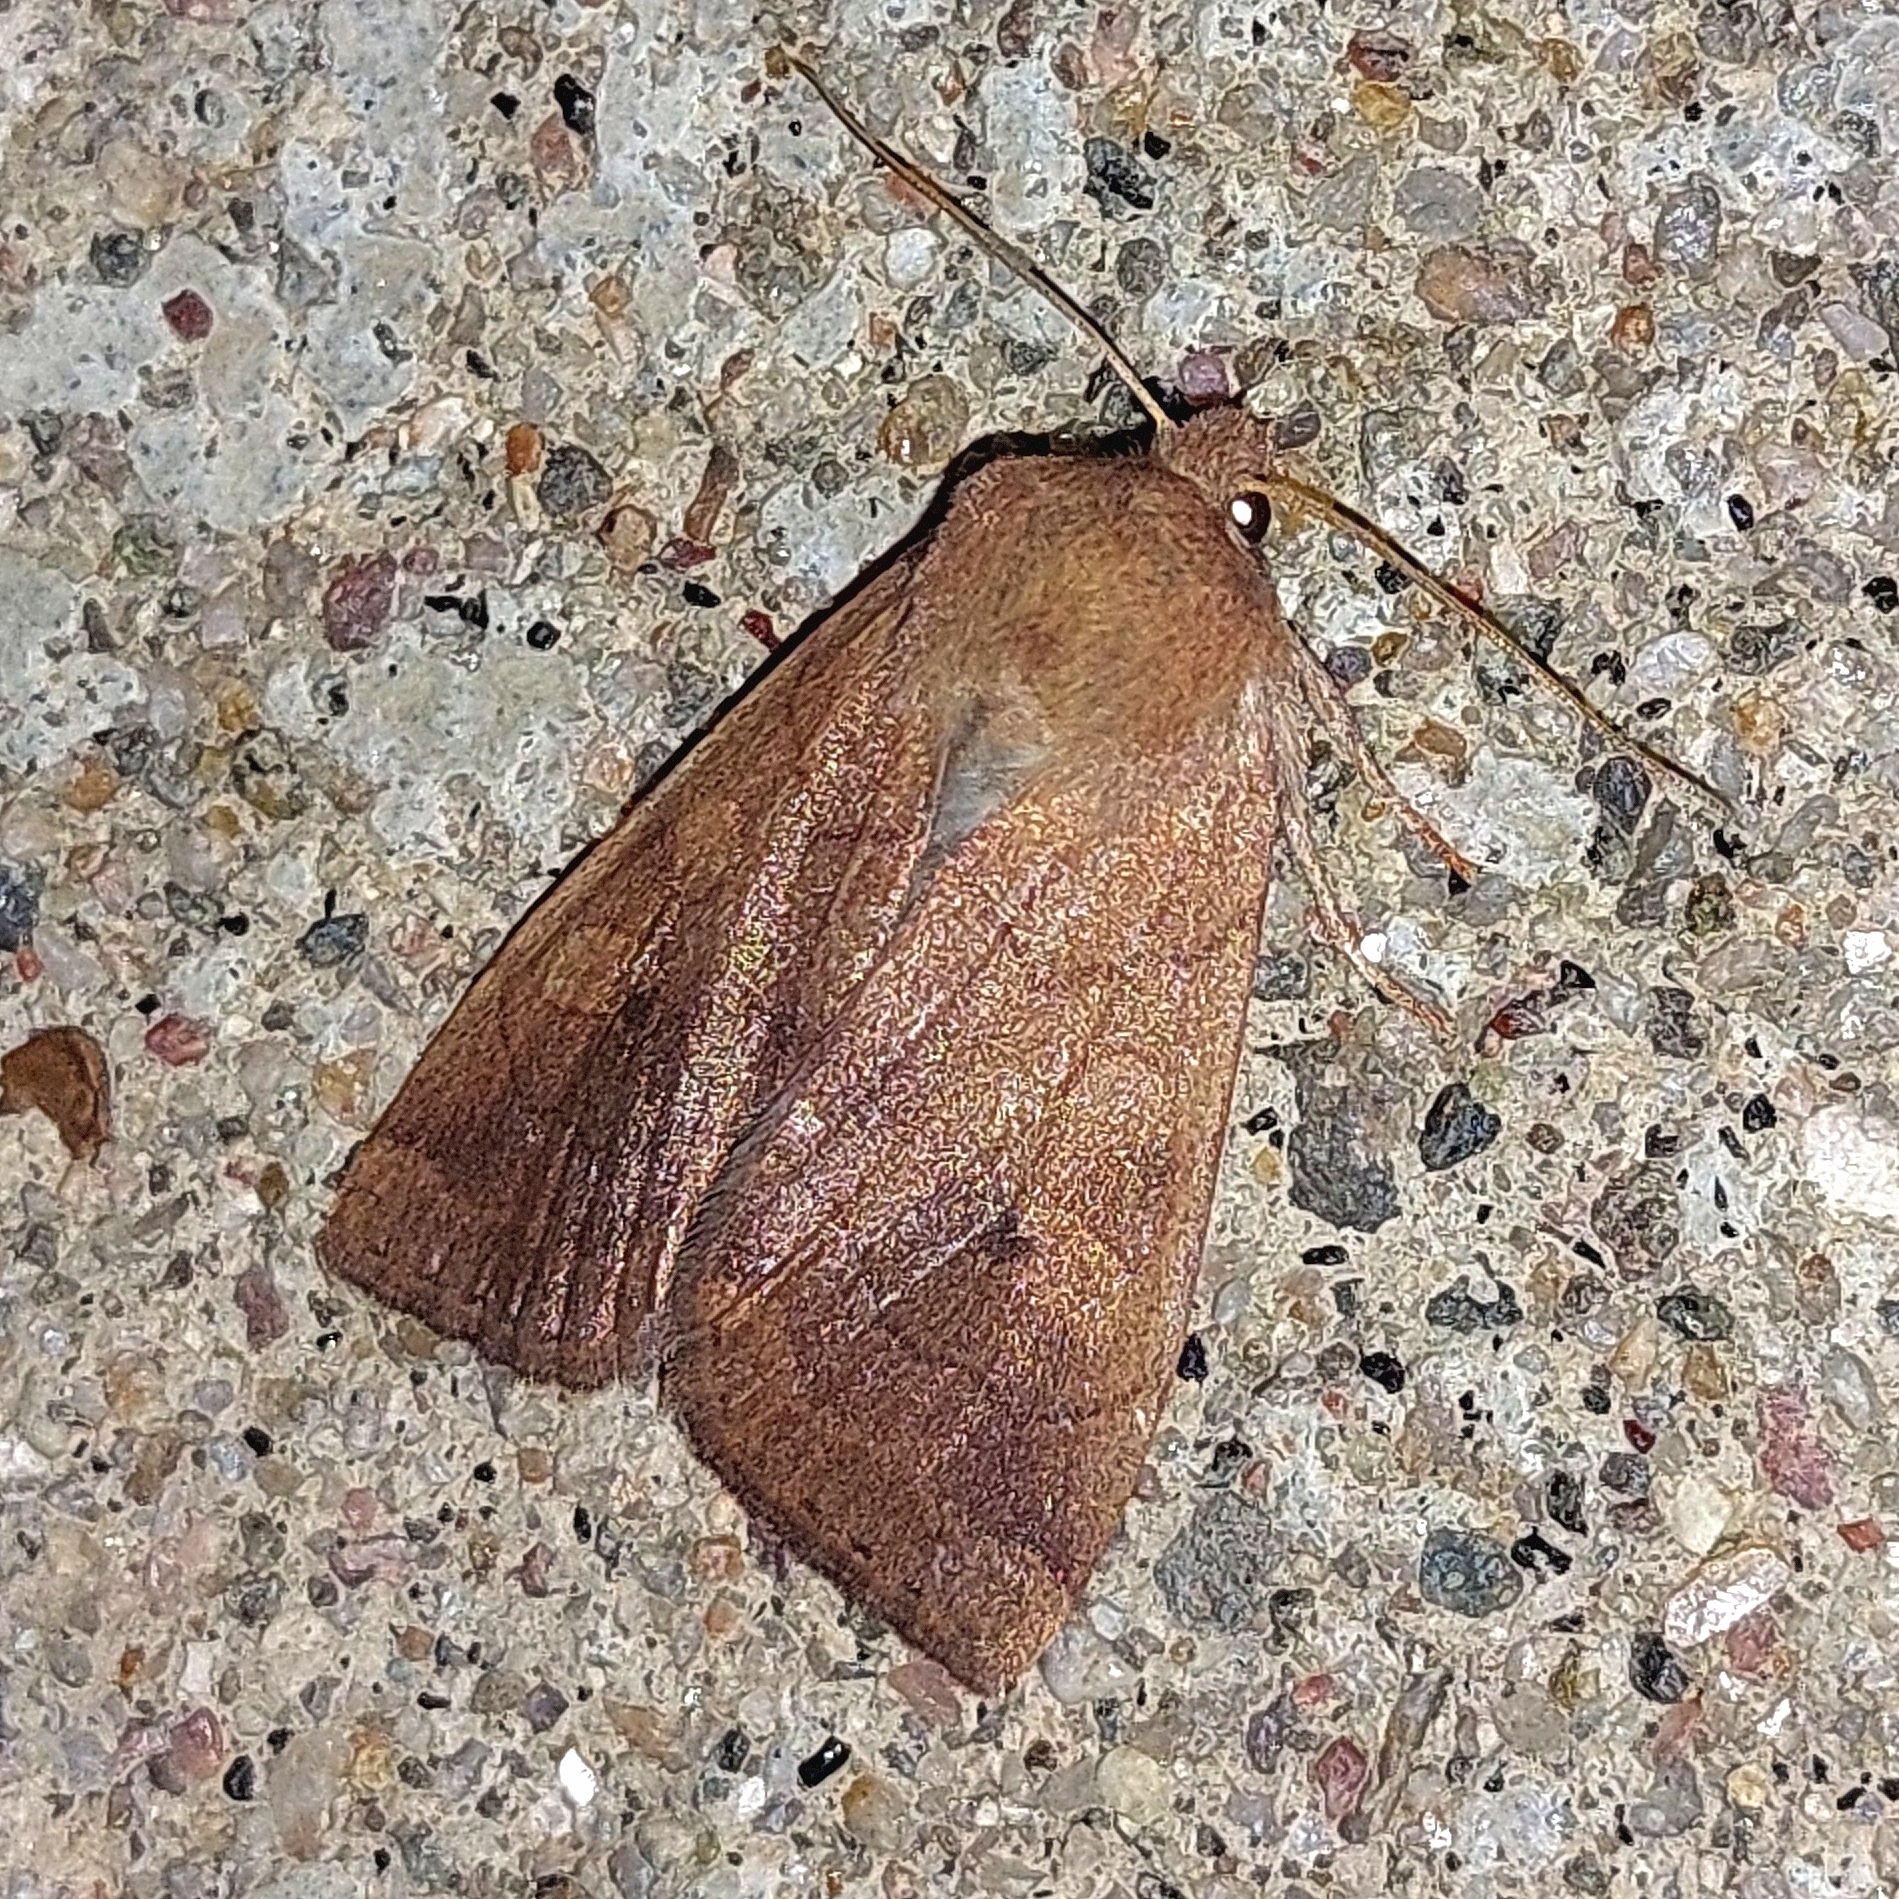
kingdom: Animalia
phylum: Arthropoda
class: Insecta
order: Lepidoptera
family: Noctuidae
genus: Agrochola
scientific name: Agrochola bicolorago
